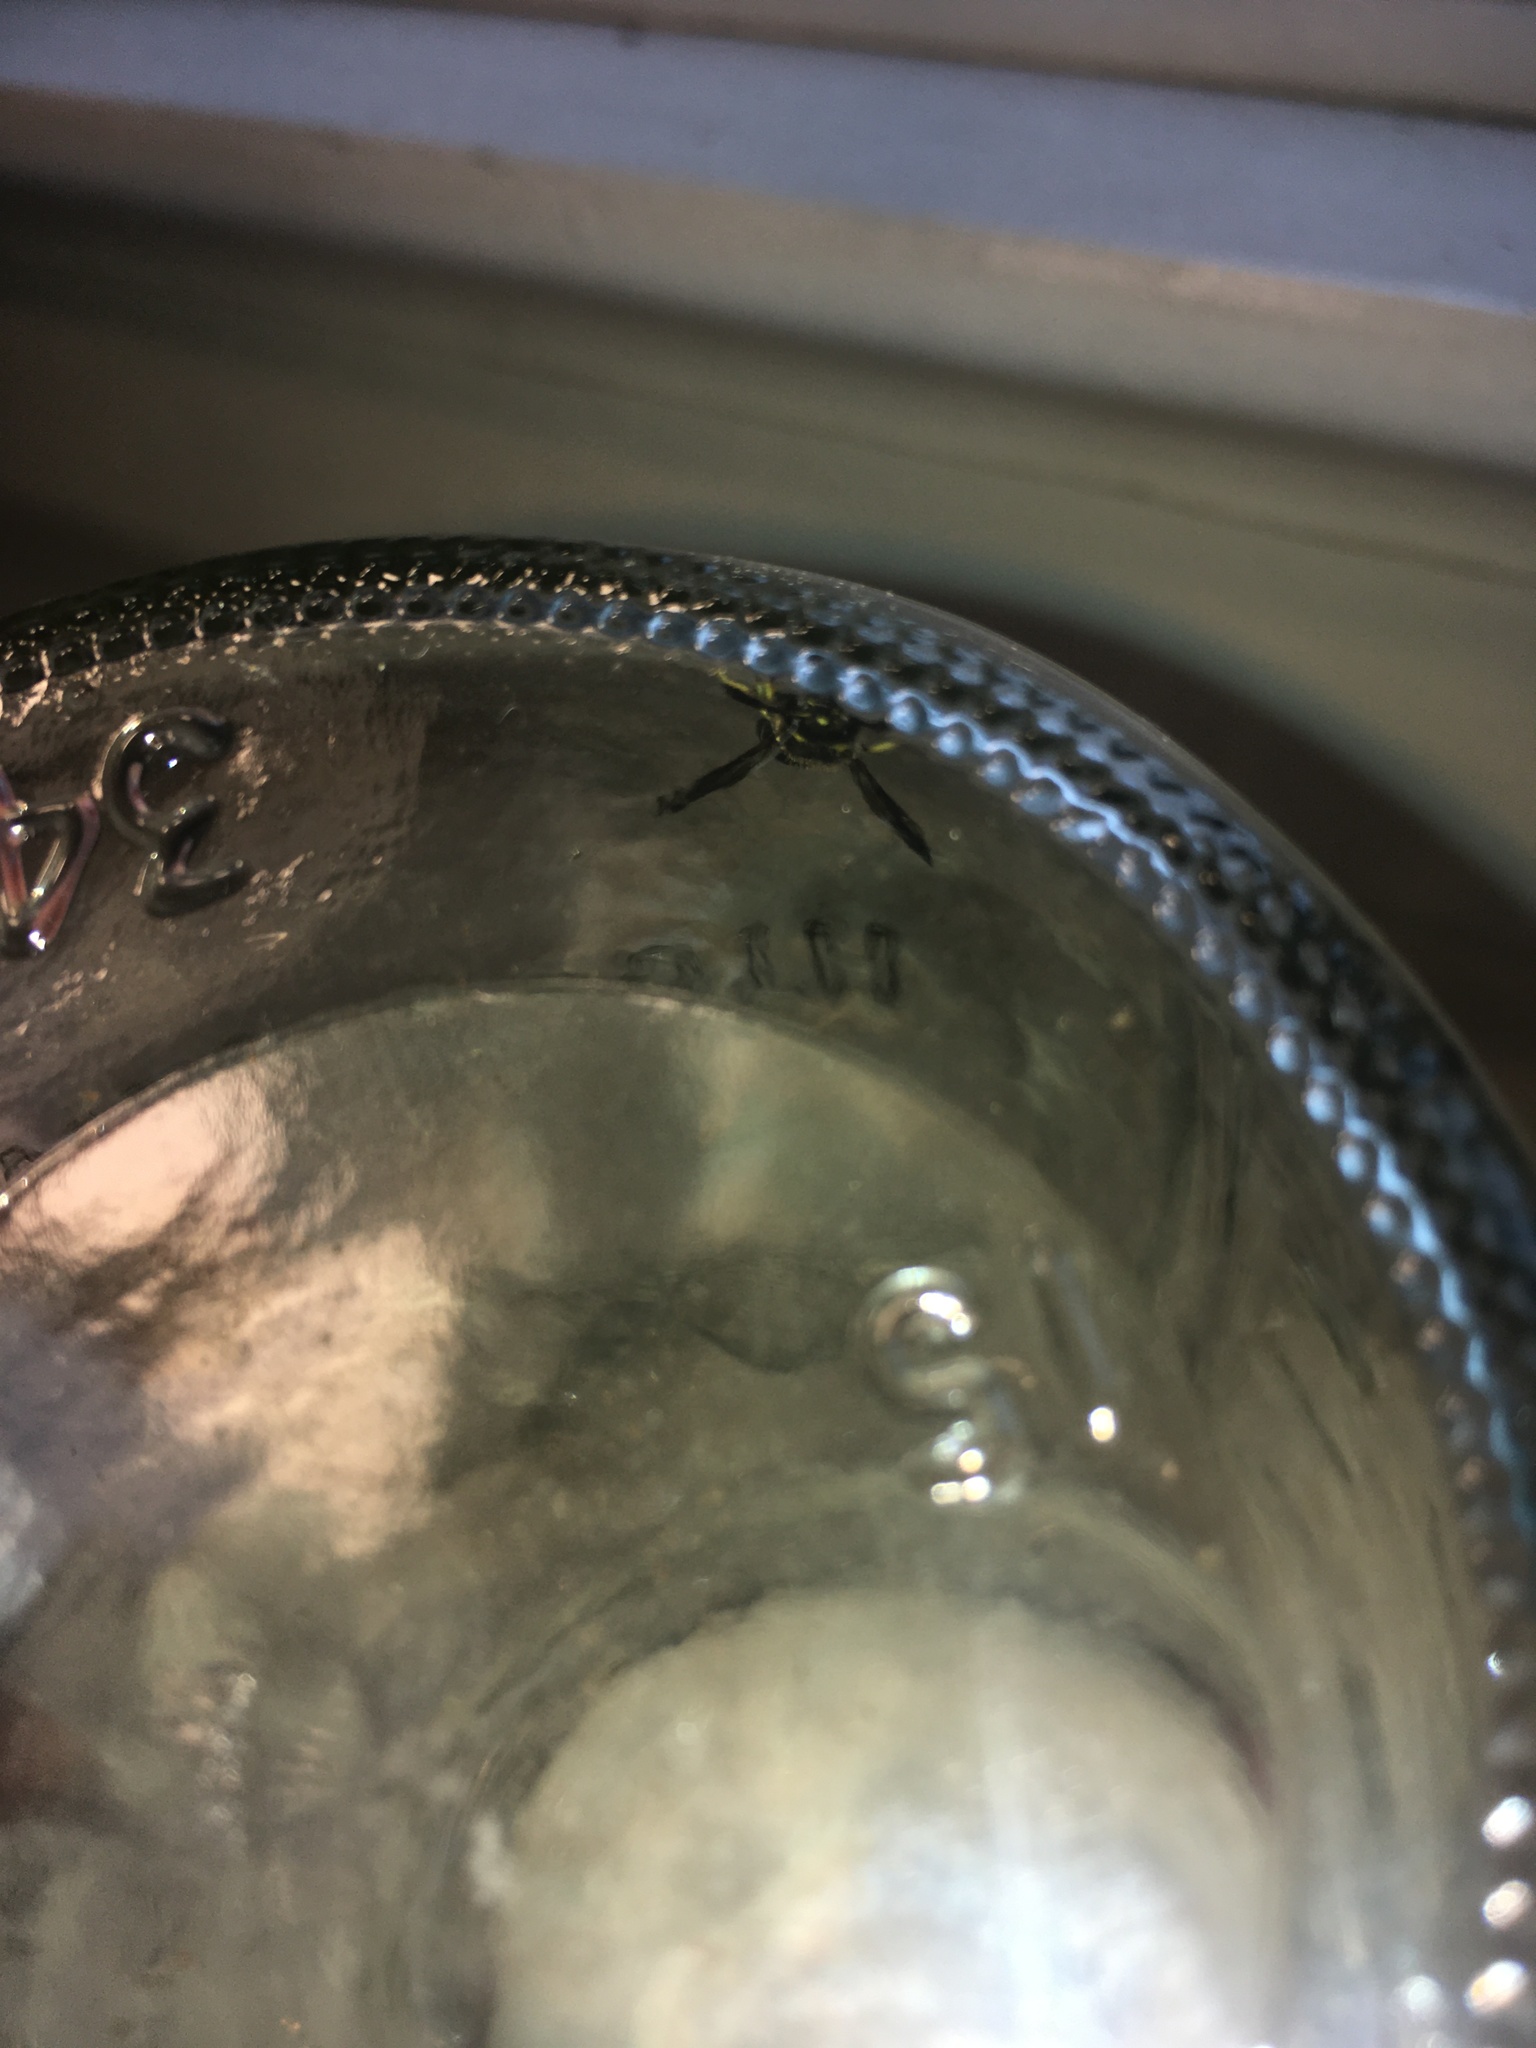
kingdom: Animalia
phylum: Arthropoda
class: Insecta
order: Hymenoptera
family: Vespidae
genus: Ancistrocerus
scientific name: Ancistrocerus
